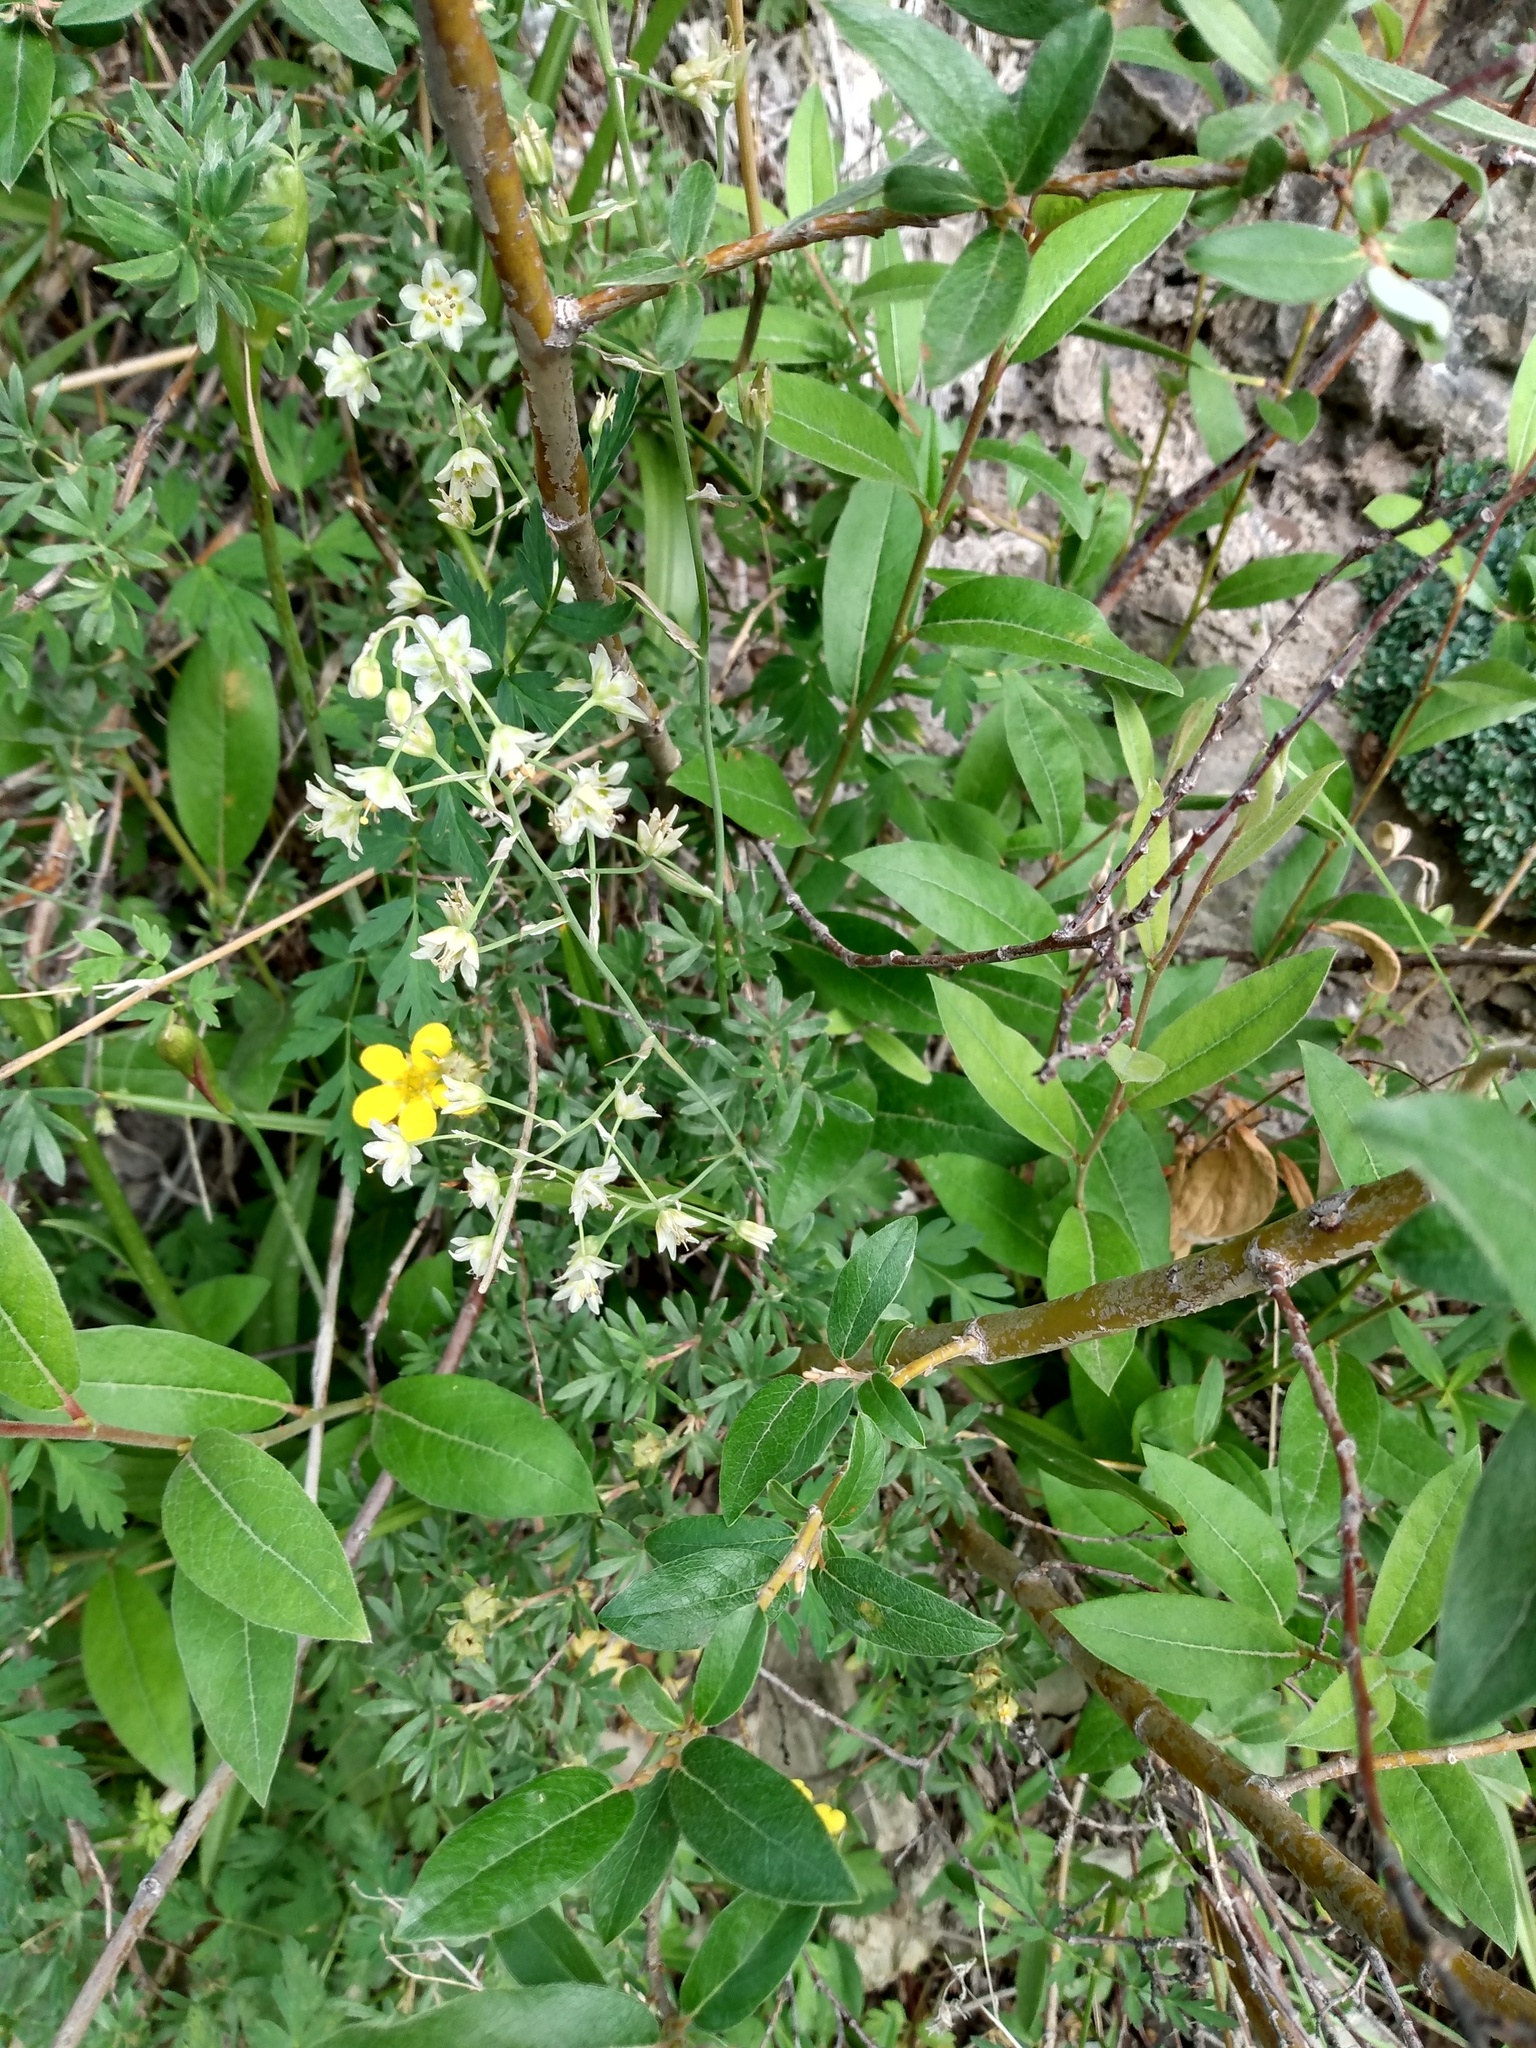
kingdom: Plantae
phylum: Tracheophyta
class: Liliopsida
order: Liliales
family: Melanthiaceae
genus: Anticlea
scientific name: Anticlea elegans
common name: Mountain death camas
